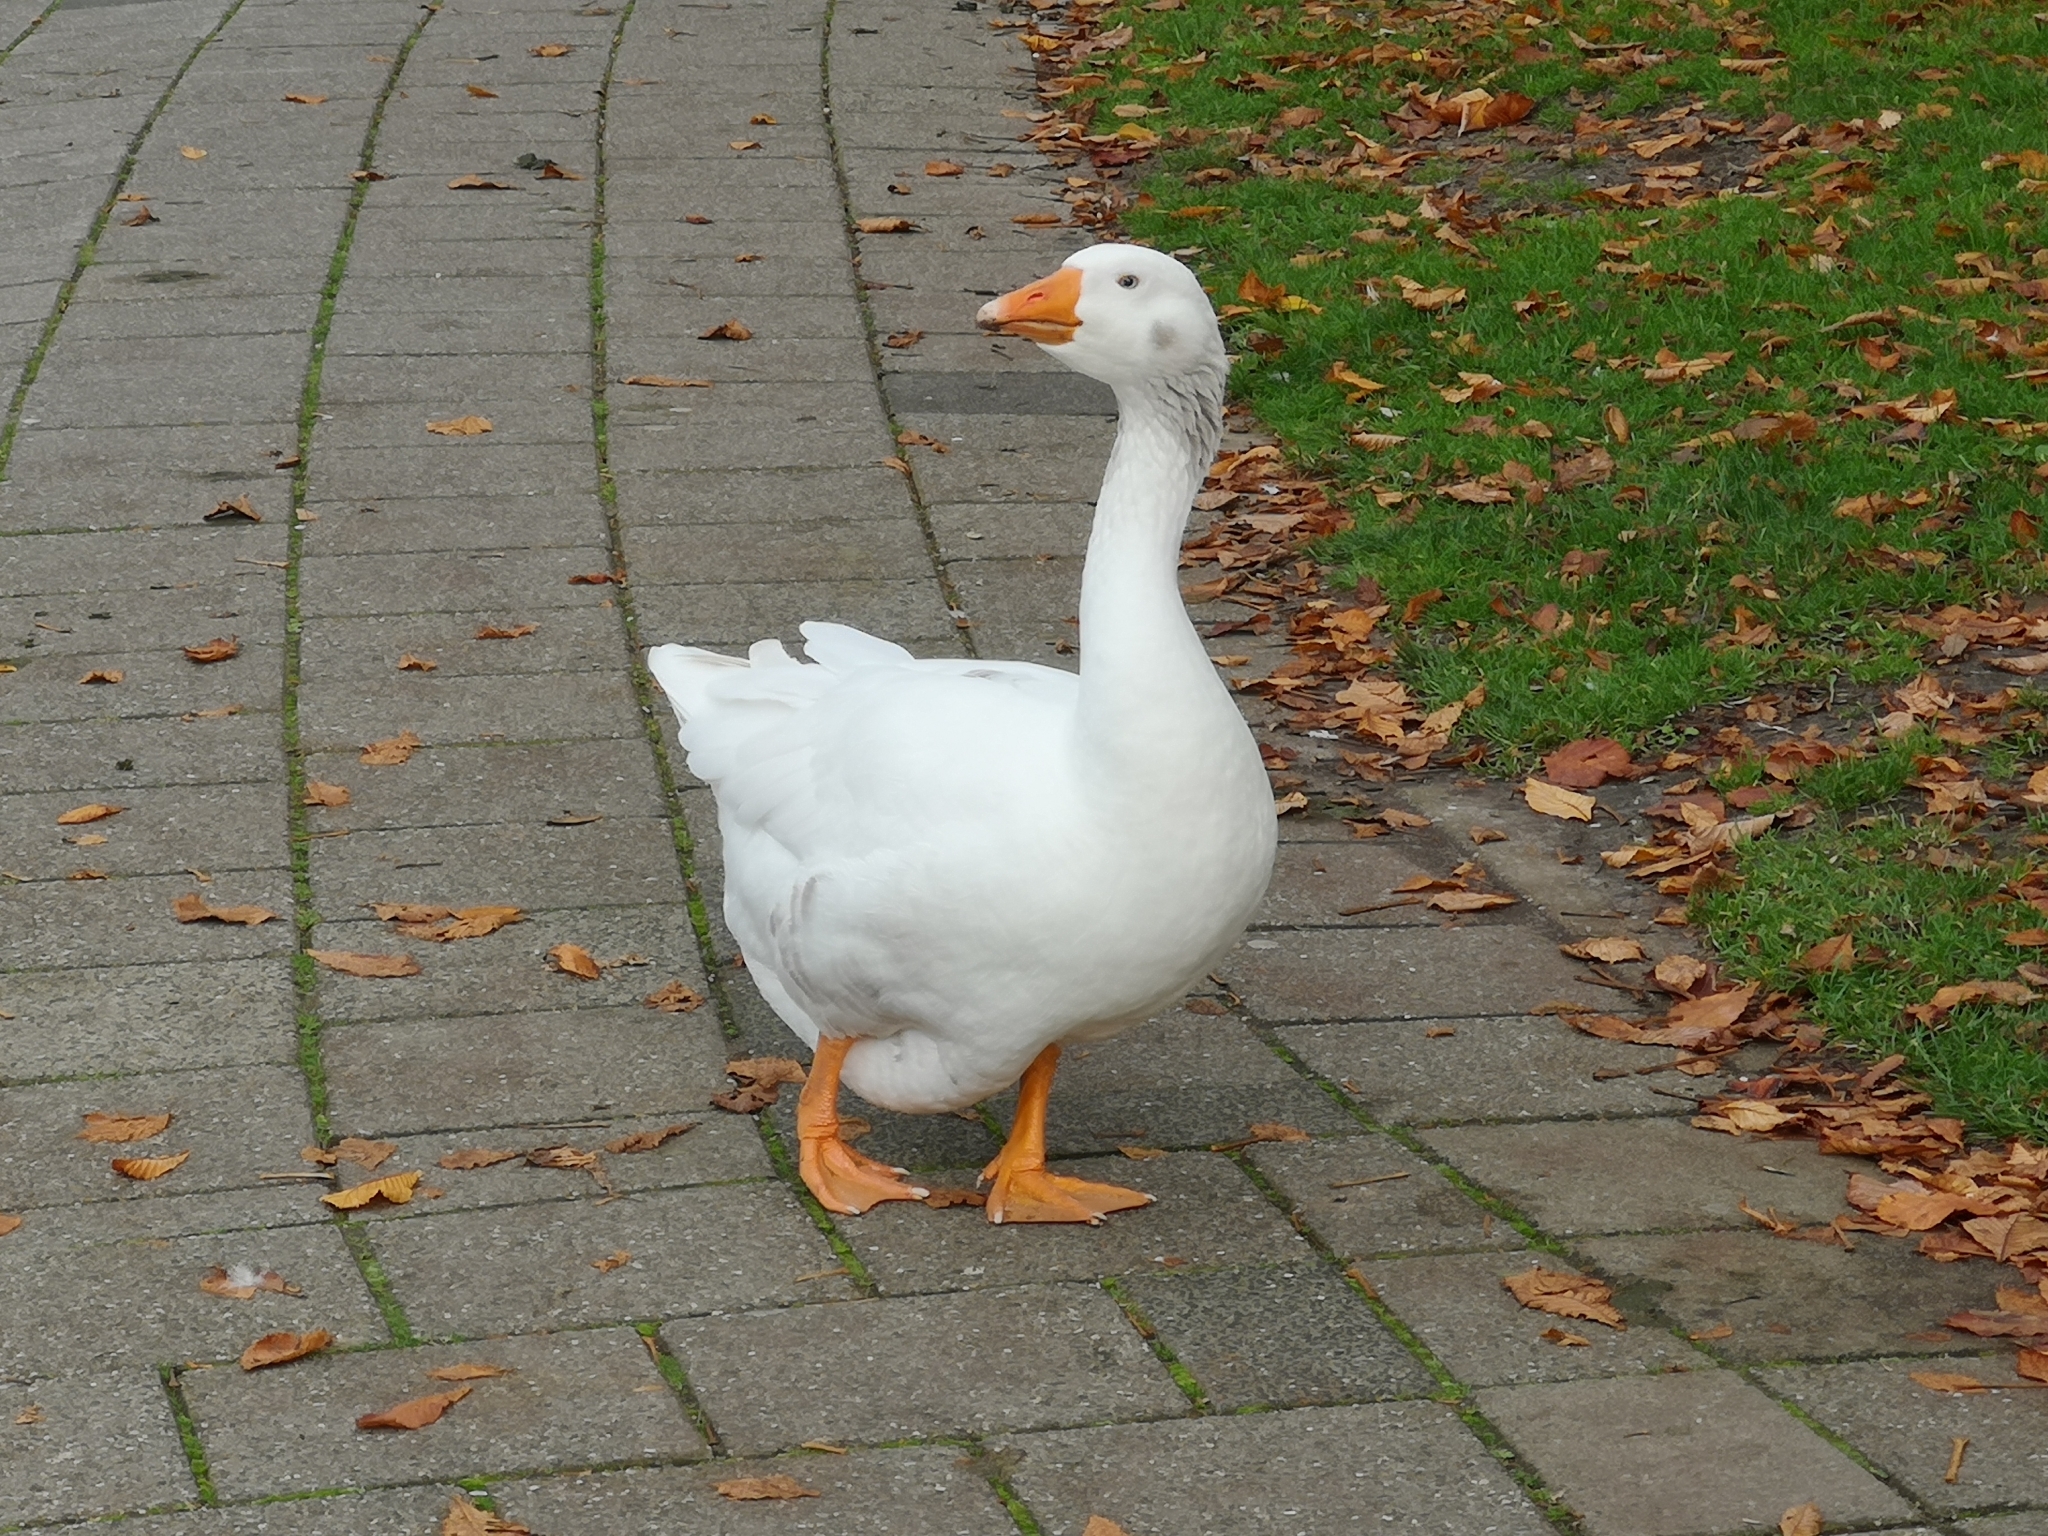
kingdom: Animalia
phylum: Chordata
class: Aves
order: Anseriformes
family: Anatidae
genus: Anser
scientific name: Anser anser
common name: Greylag goose
